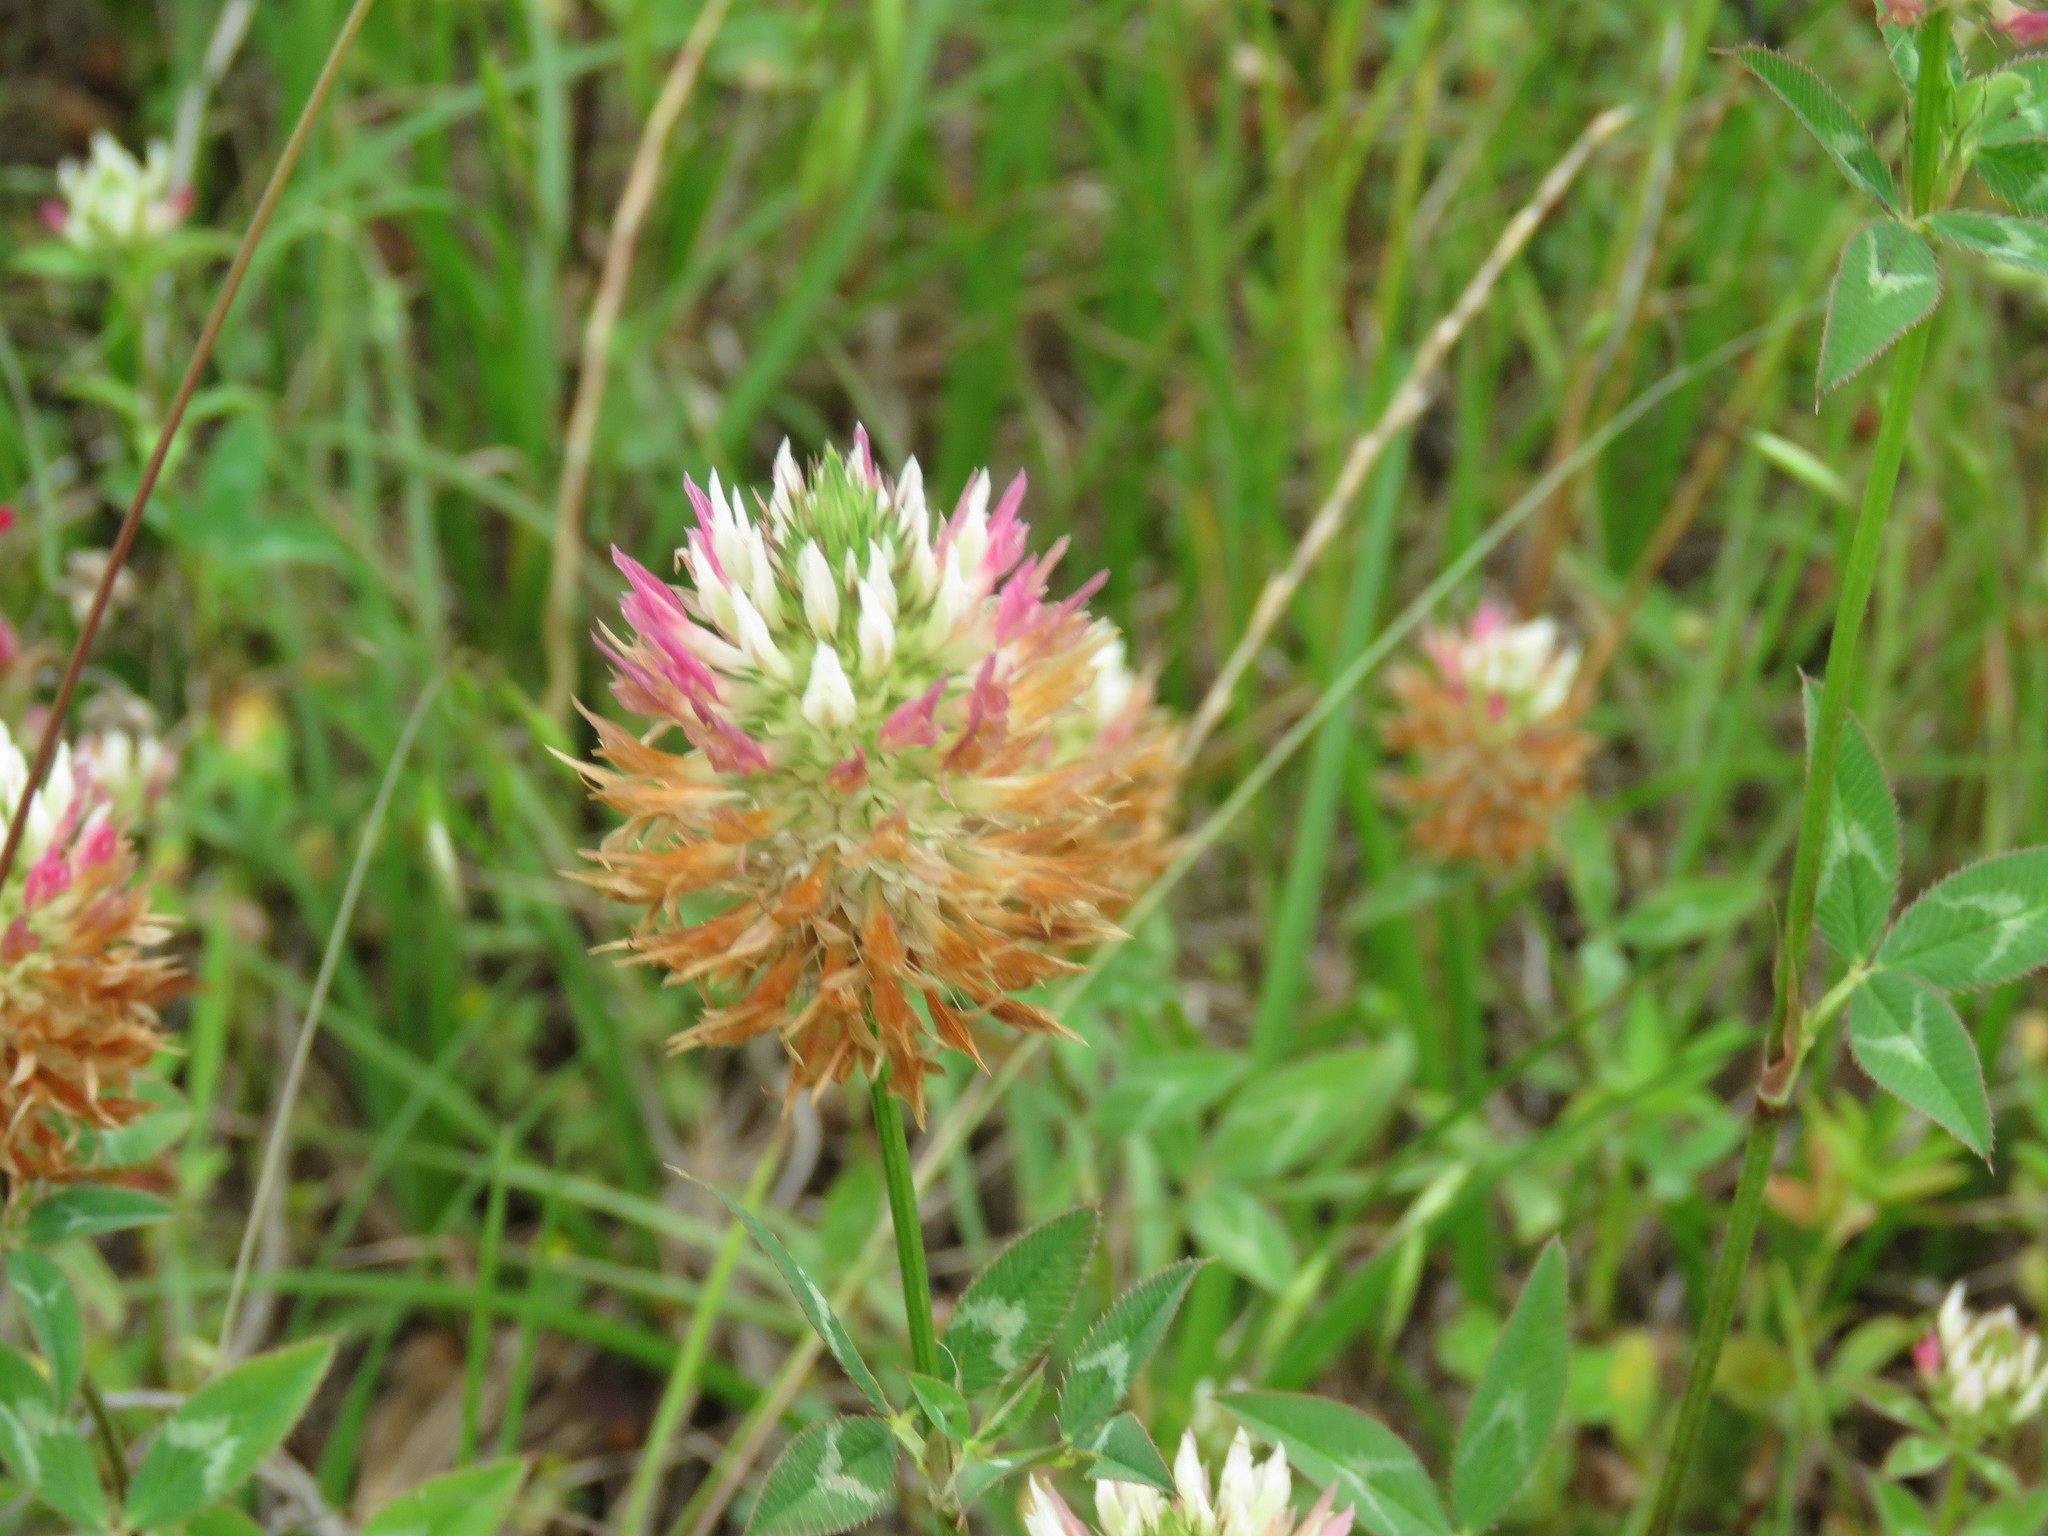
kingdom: Plantae
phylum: Tracheophyta
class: Magnoliopsida
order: Fabales
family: Fabaceae
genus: Trifolium
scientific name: Trifolium vesiculosum
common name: Arrowleaf clover
